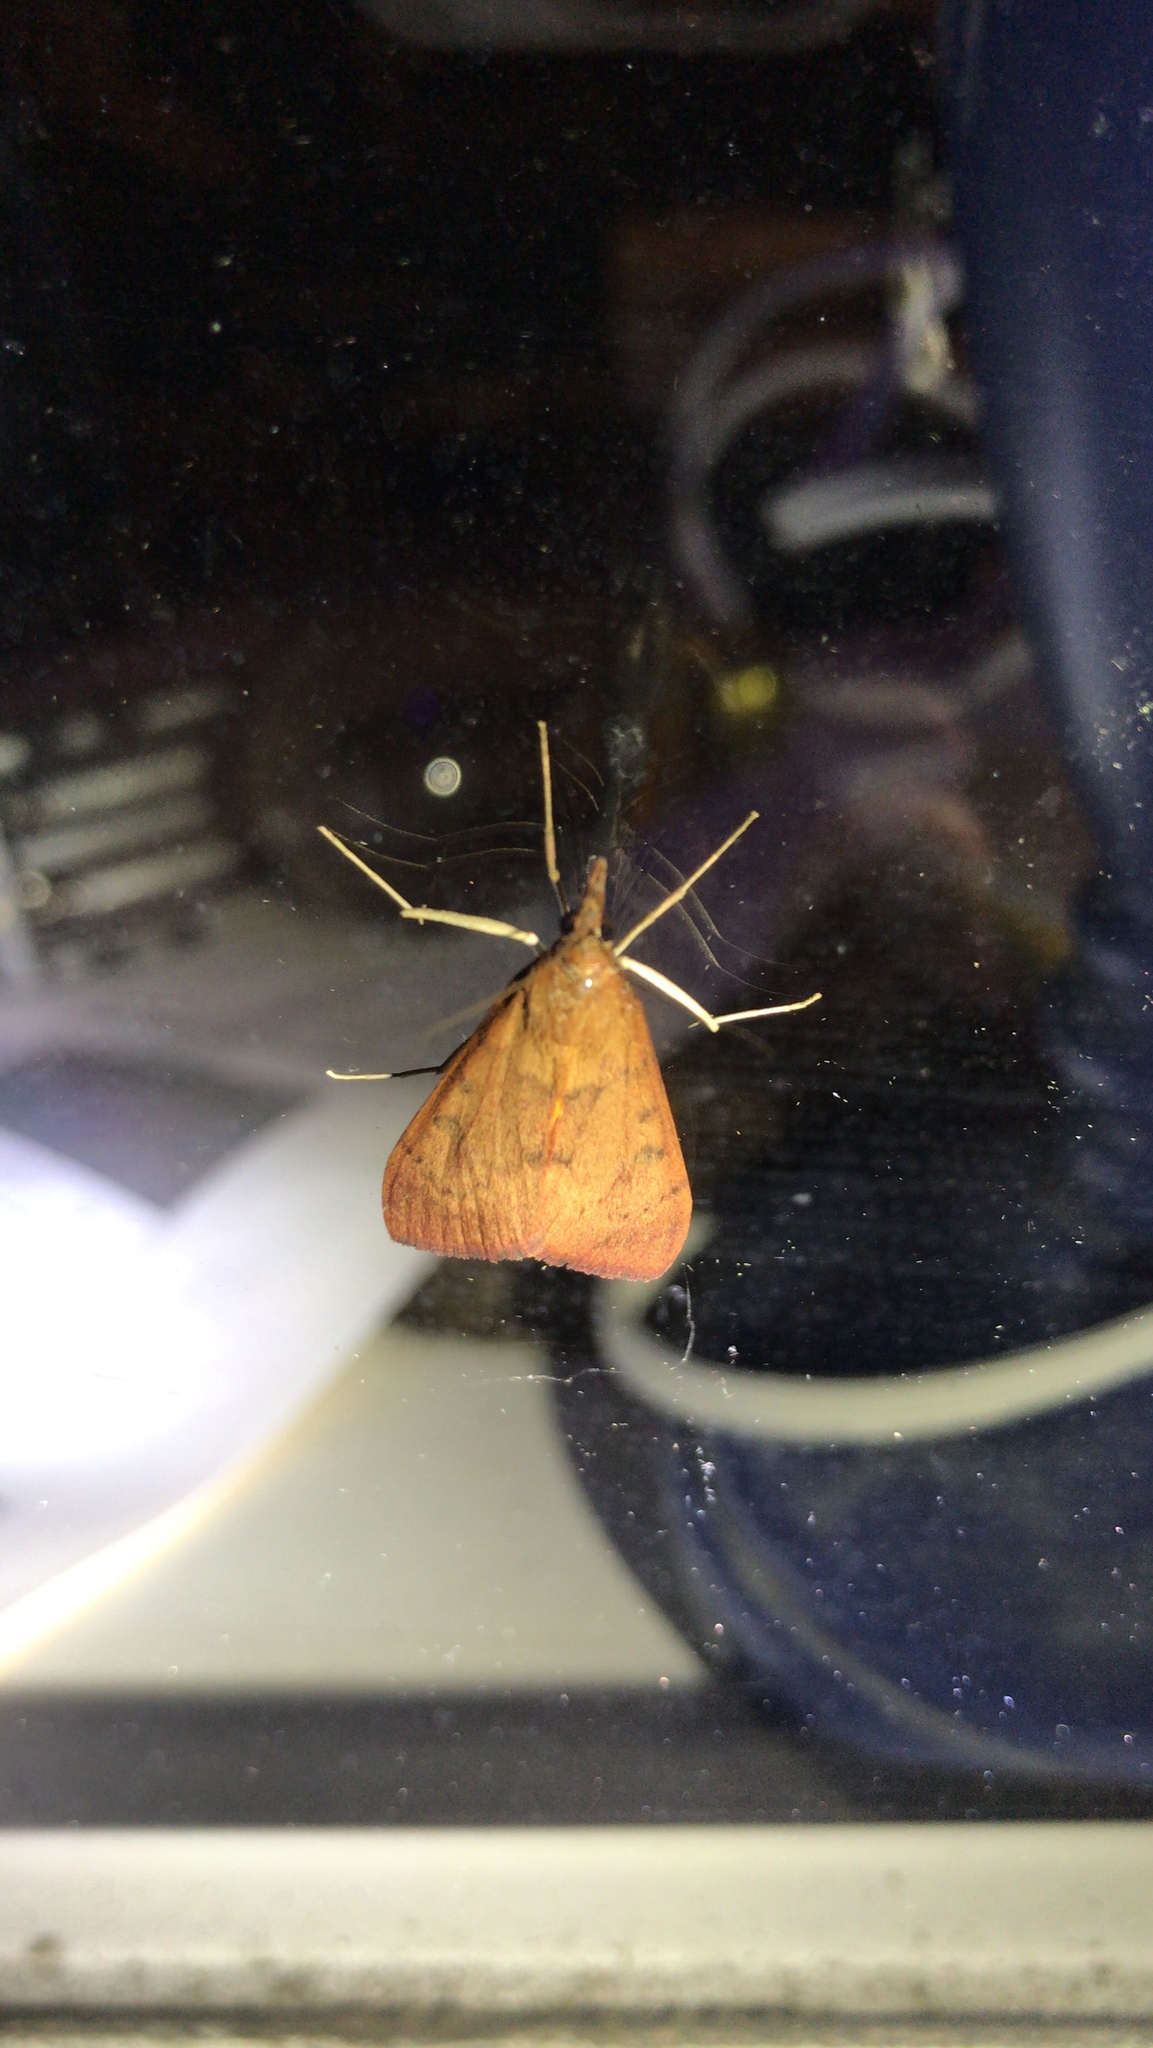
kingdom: Animalia
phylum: Arthropoda
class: Insecta
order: Lepidoptera
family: Crambidae
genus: Uresiphita
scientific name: Uresiphita reversalis
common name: Genista broom moth
